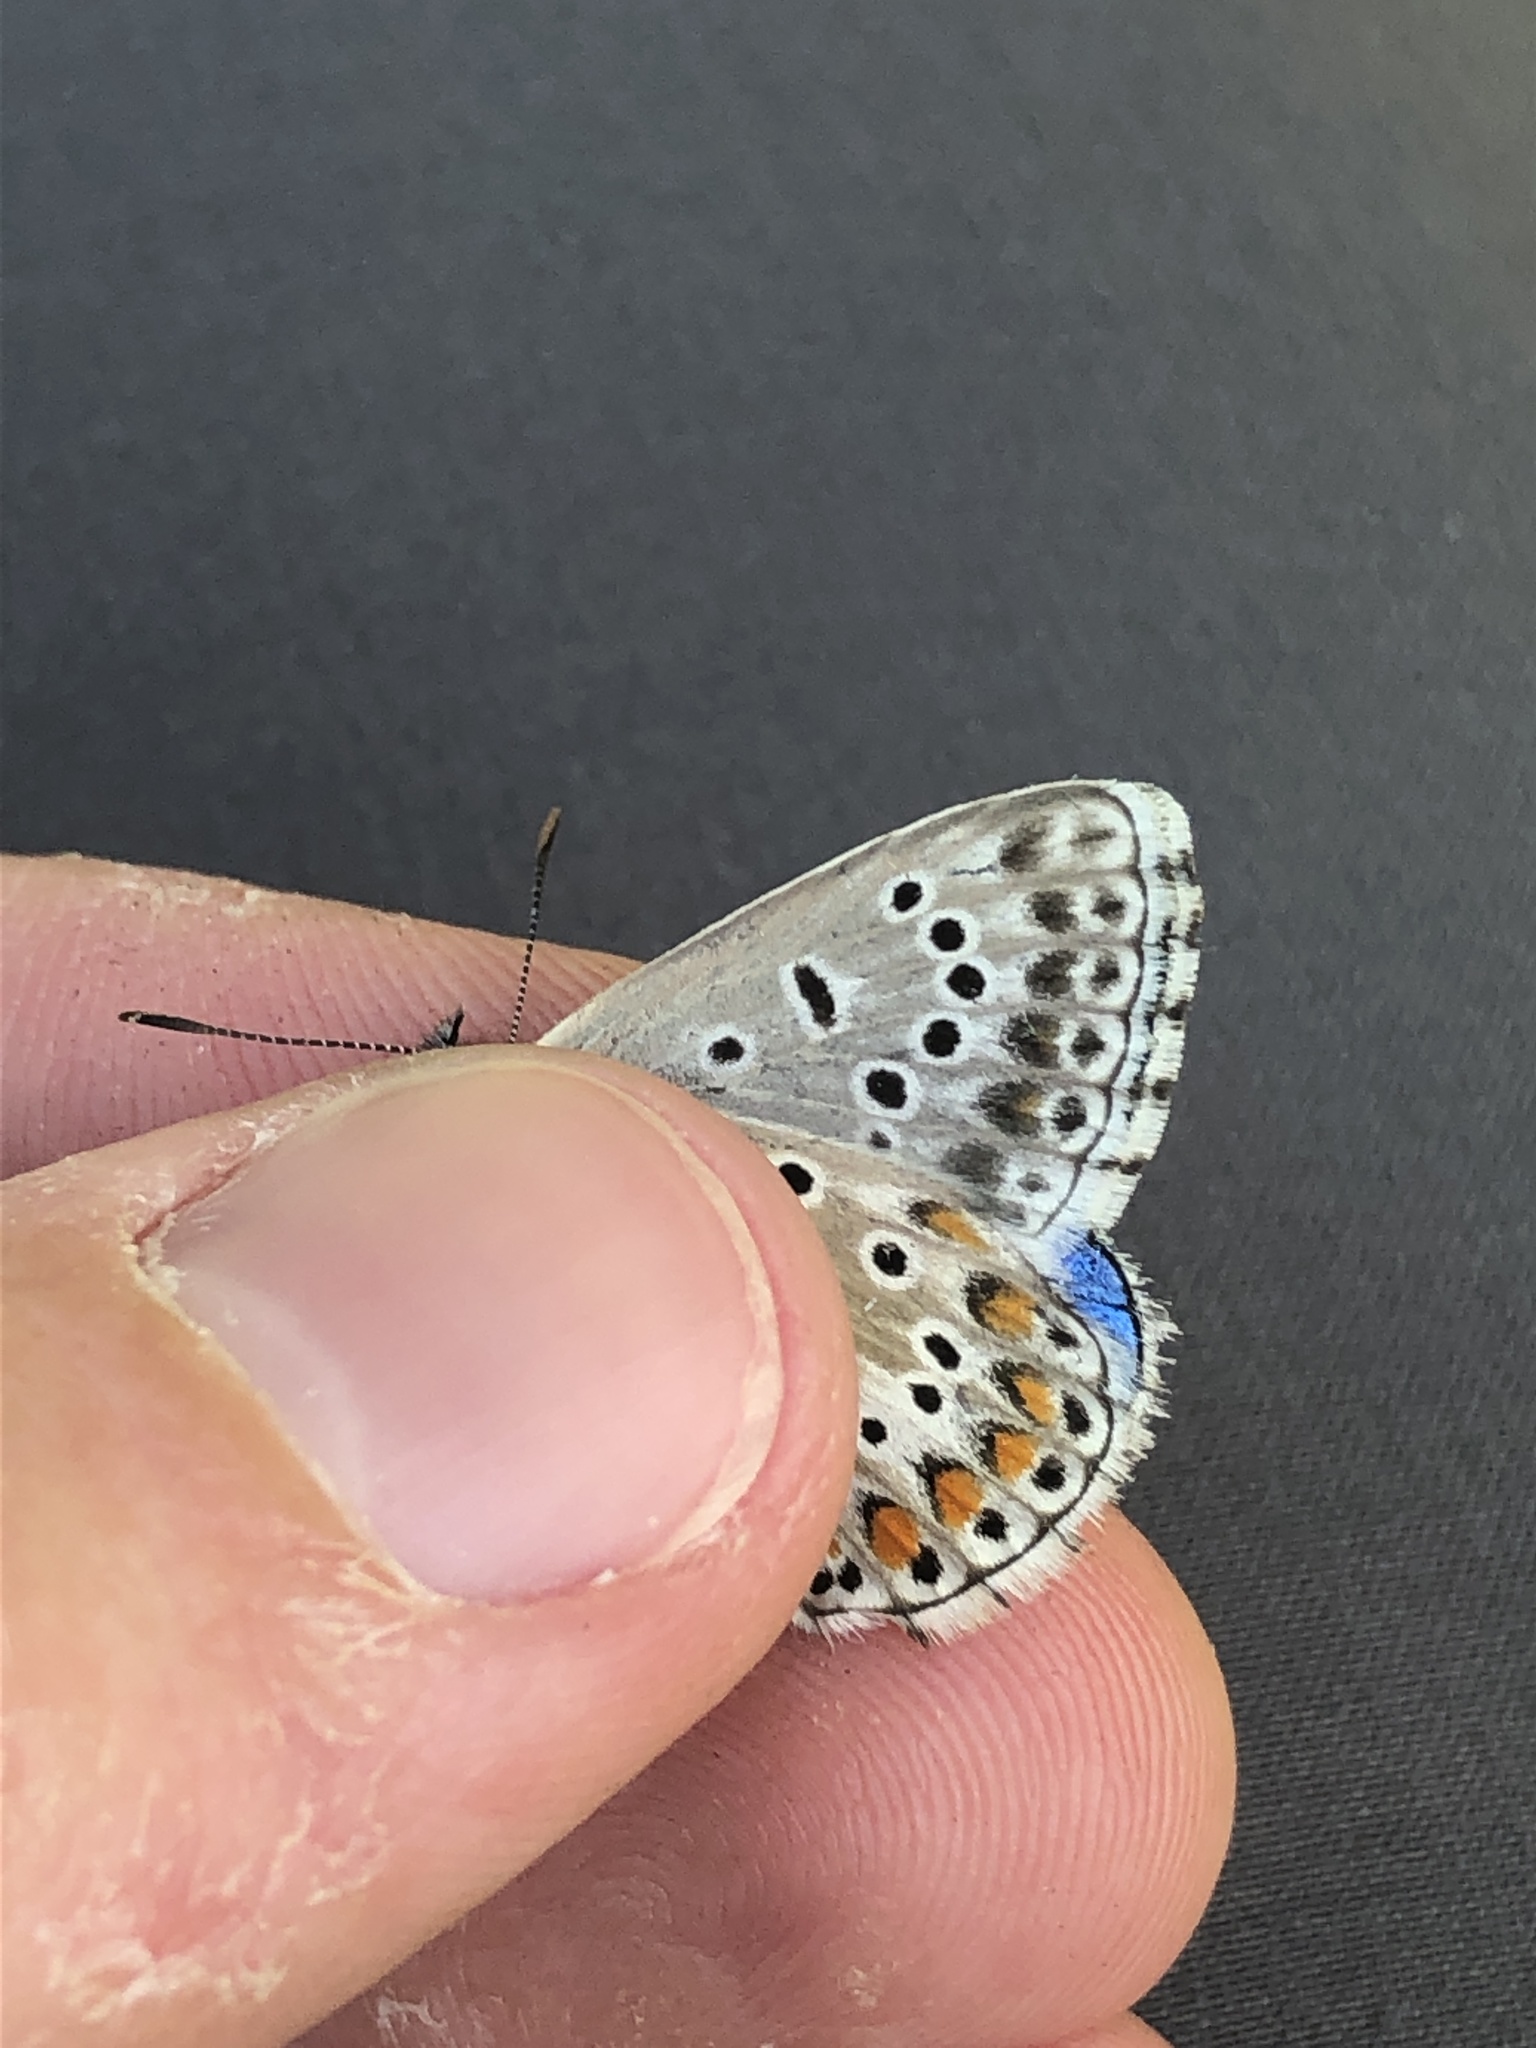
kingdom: Animalia
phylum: Arthropoda
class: Insecta
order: Lepidoptera
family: Lycaenidae
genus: Lysandra
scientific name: Lysandra bellargus
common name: Adonis blue
